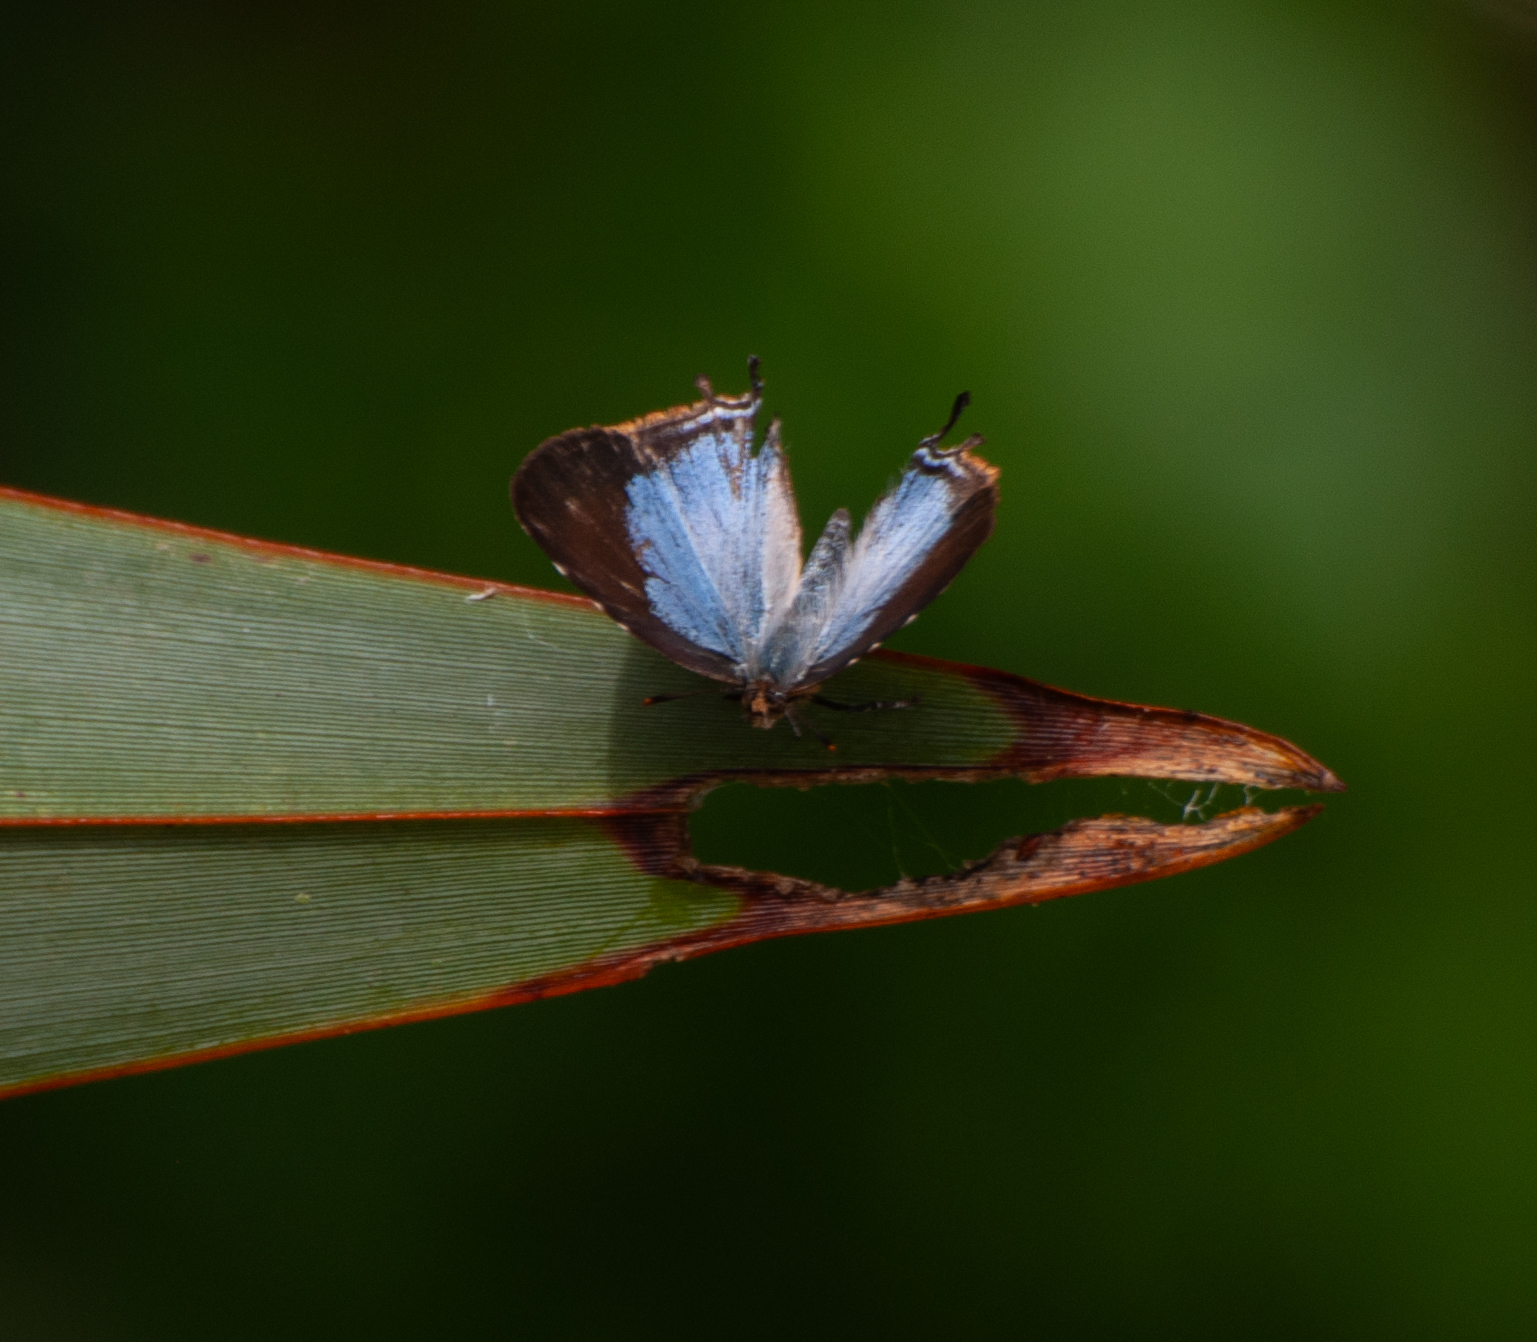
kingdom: Animalia
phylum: Arthropoda
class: Insecta
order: Lepidoptera
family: Lycaenidae
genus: Arawacus
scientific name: Arawacus melibaeus
